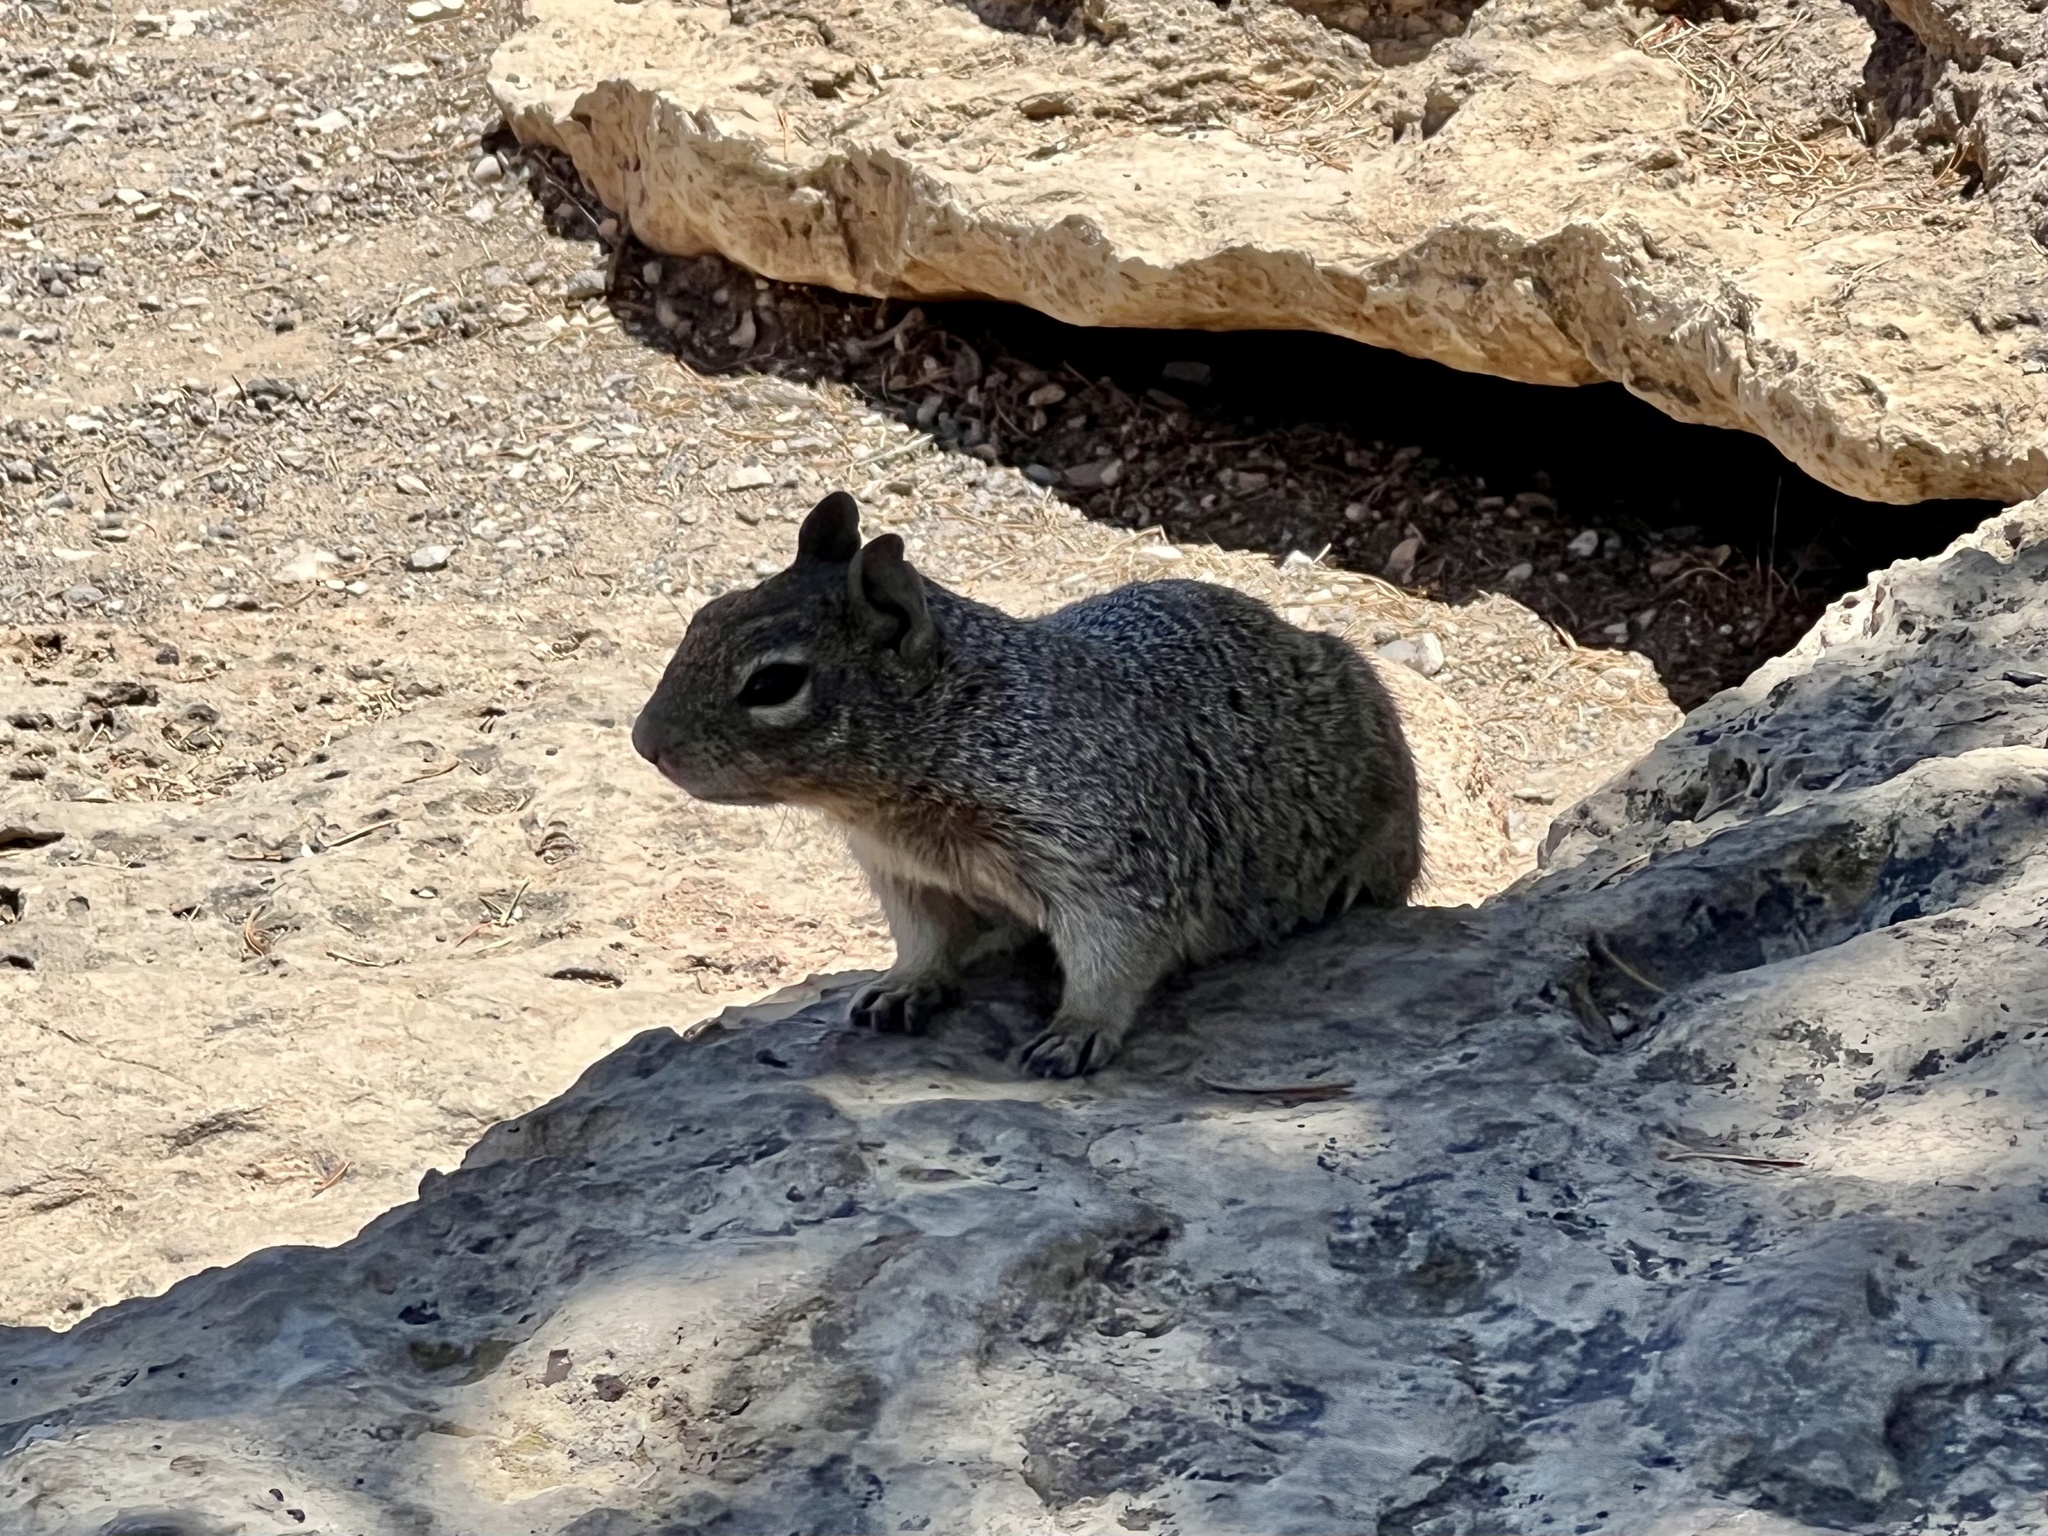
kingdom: Animalia
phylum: Chordata
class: Mammalia
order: Rodentia
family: Sciuridae
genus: Otospermophilus
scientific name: Otospermophilus variegatus
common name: Rock squirrel
